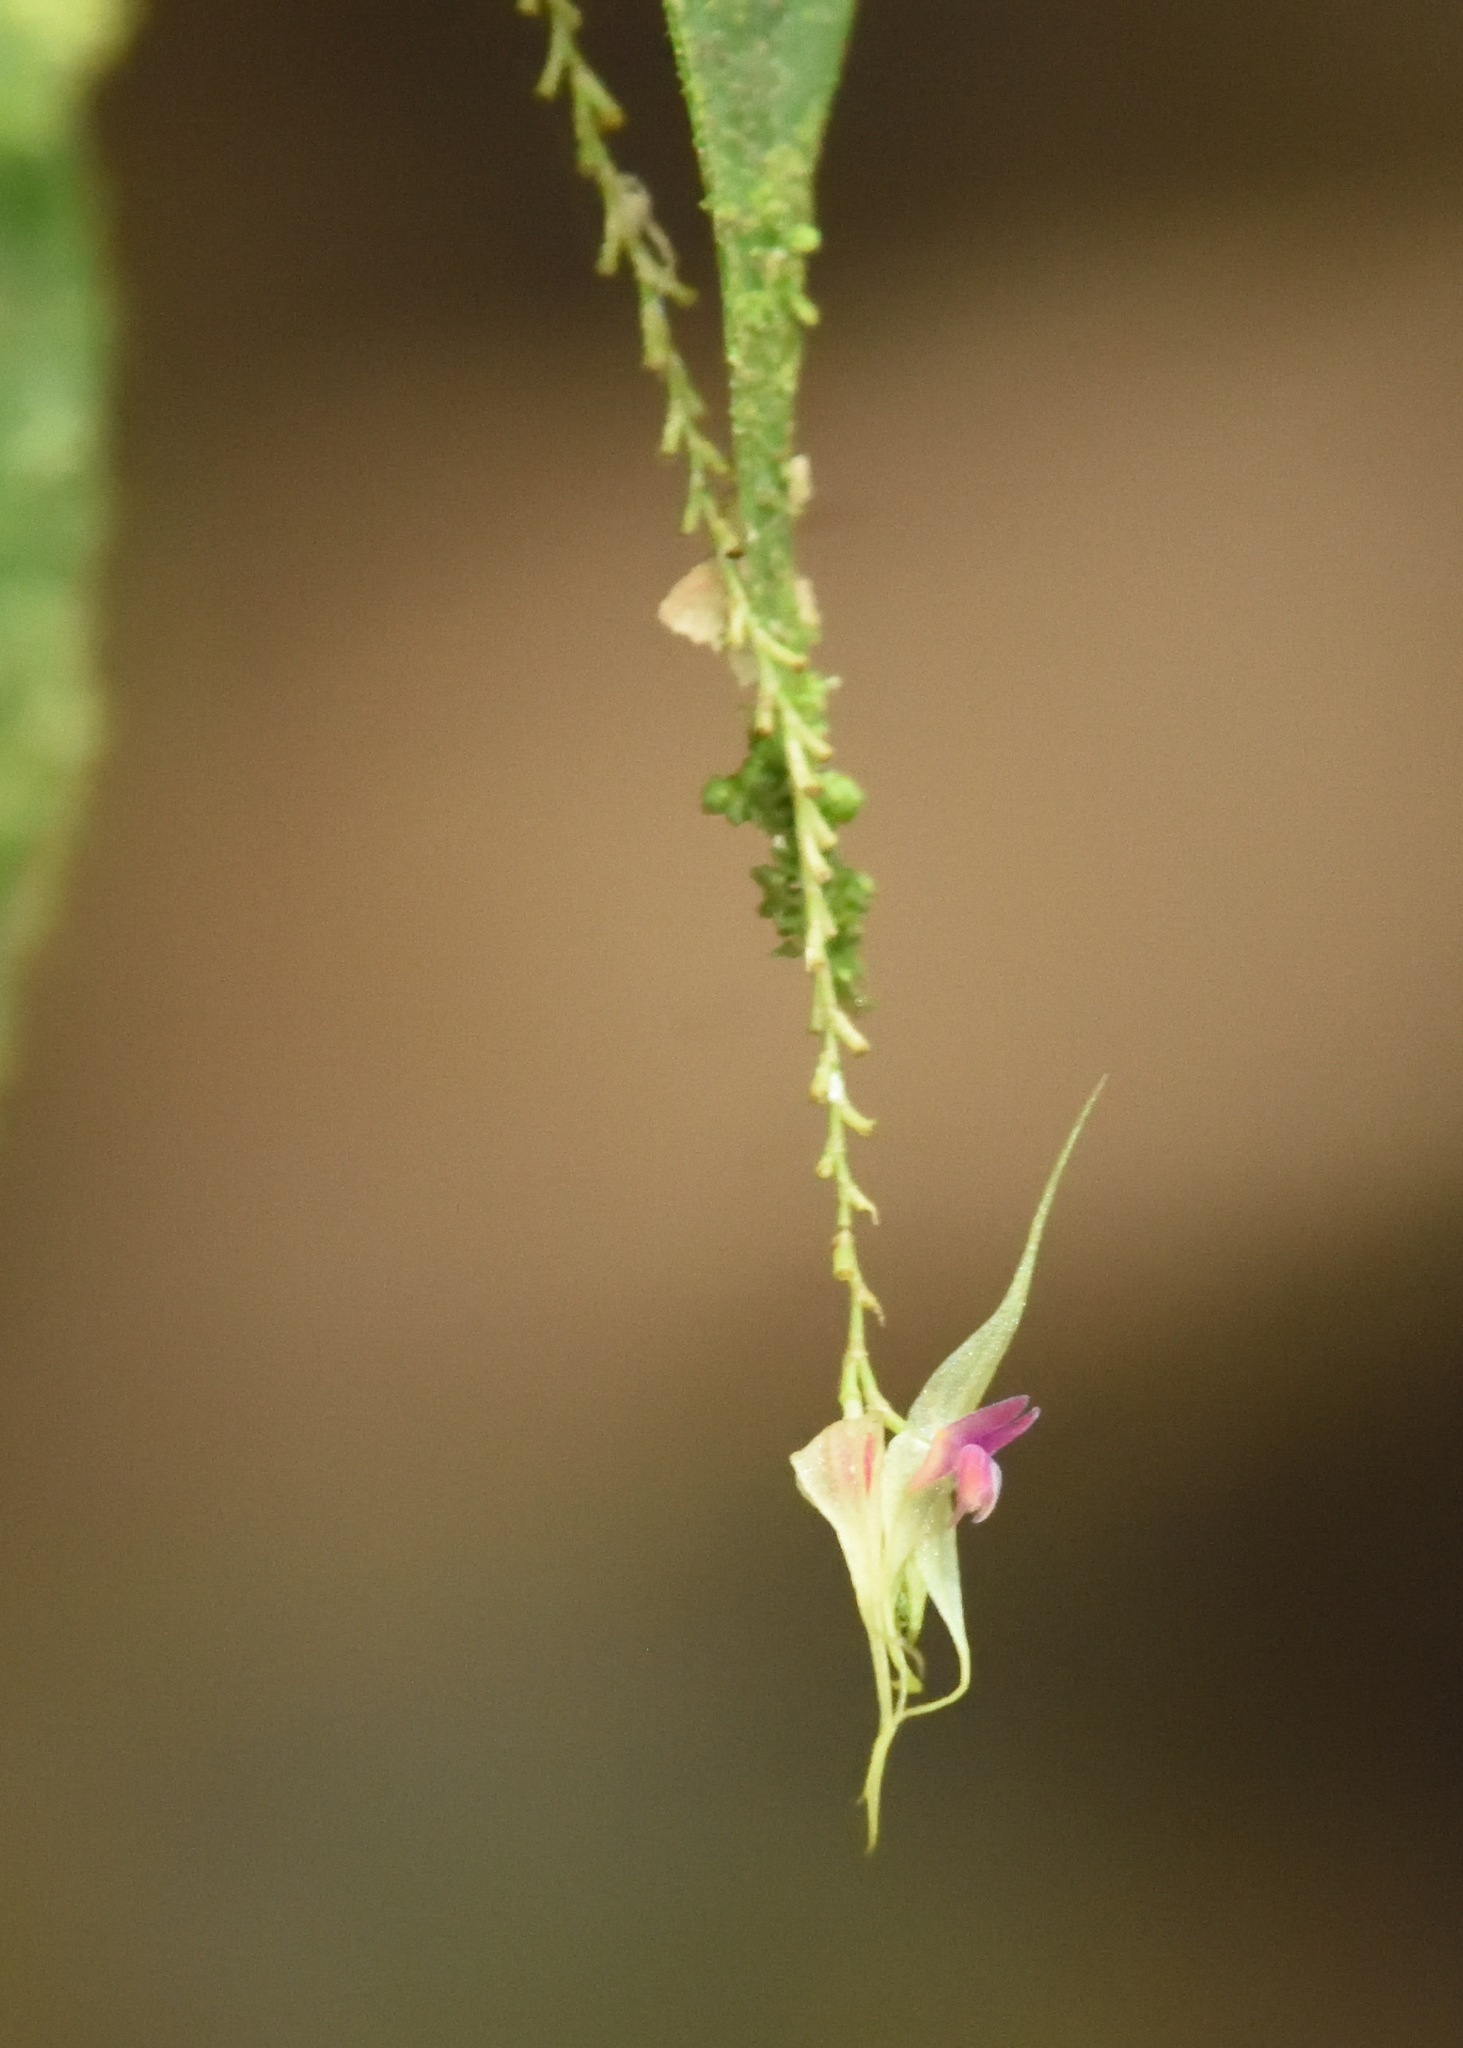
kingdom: Plantae
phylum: Tracheophyta
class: Liliopsida
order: Asparagales
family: Orchidaceae
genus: Lepanthes
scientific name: Lepanthes acutissima
